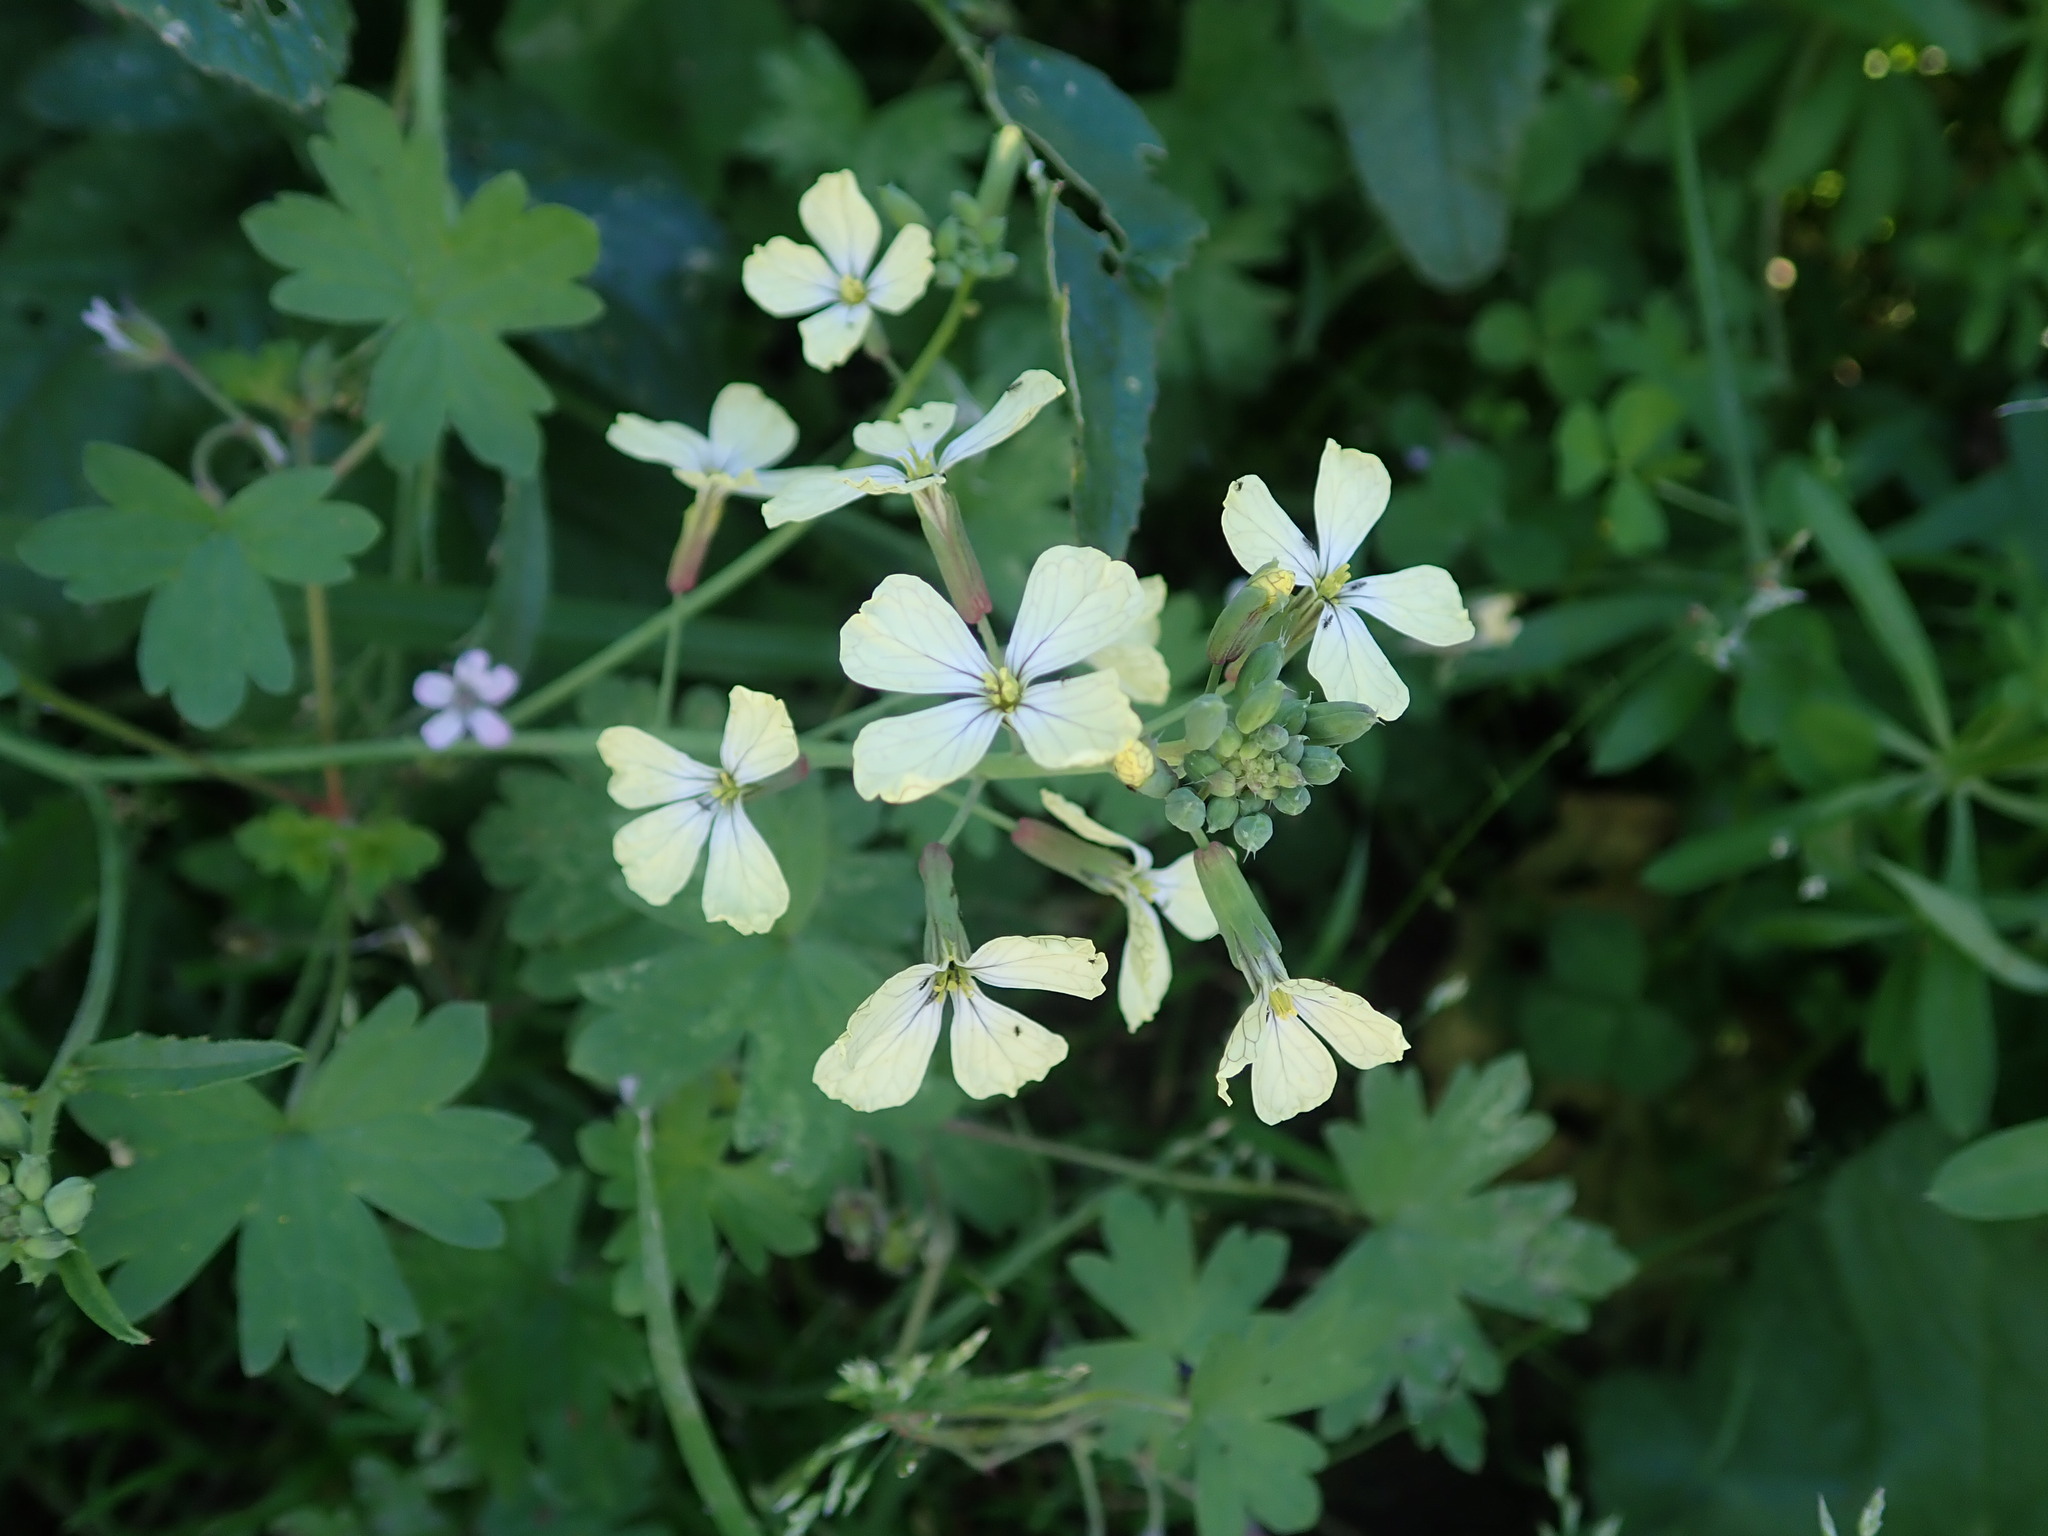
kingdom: Plantae
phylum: Tracheophyta
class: Magnoliopsida
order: Brassicales
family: Brassicaceae
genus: Raphanus
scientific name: Raphanus raphanistrum
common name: Wild radish
